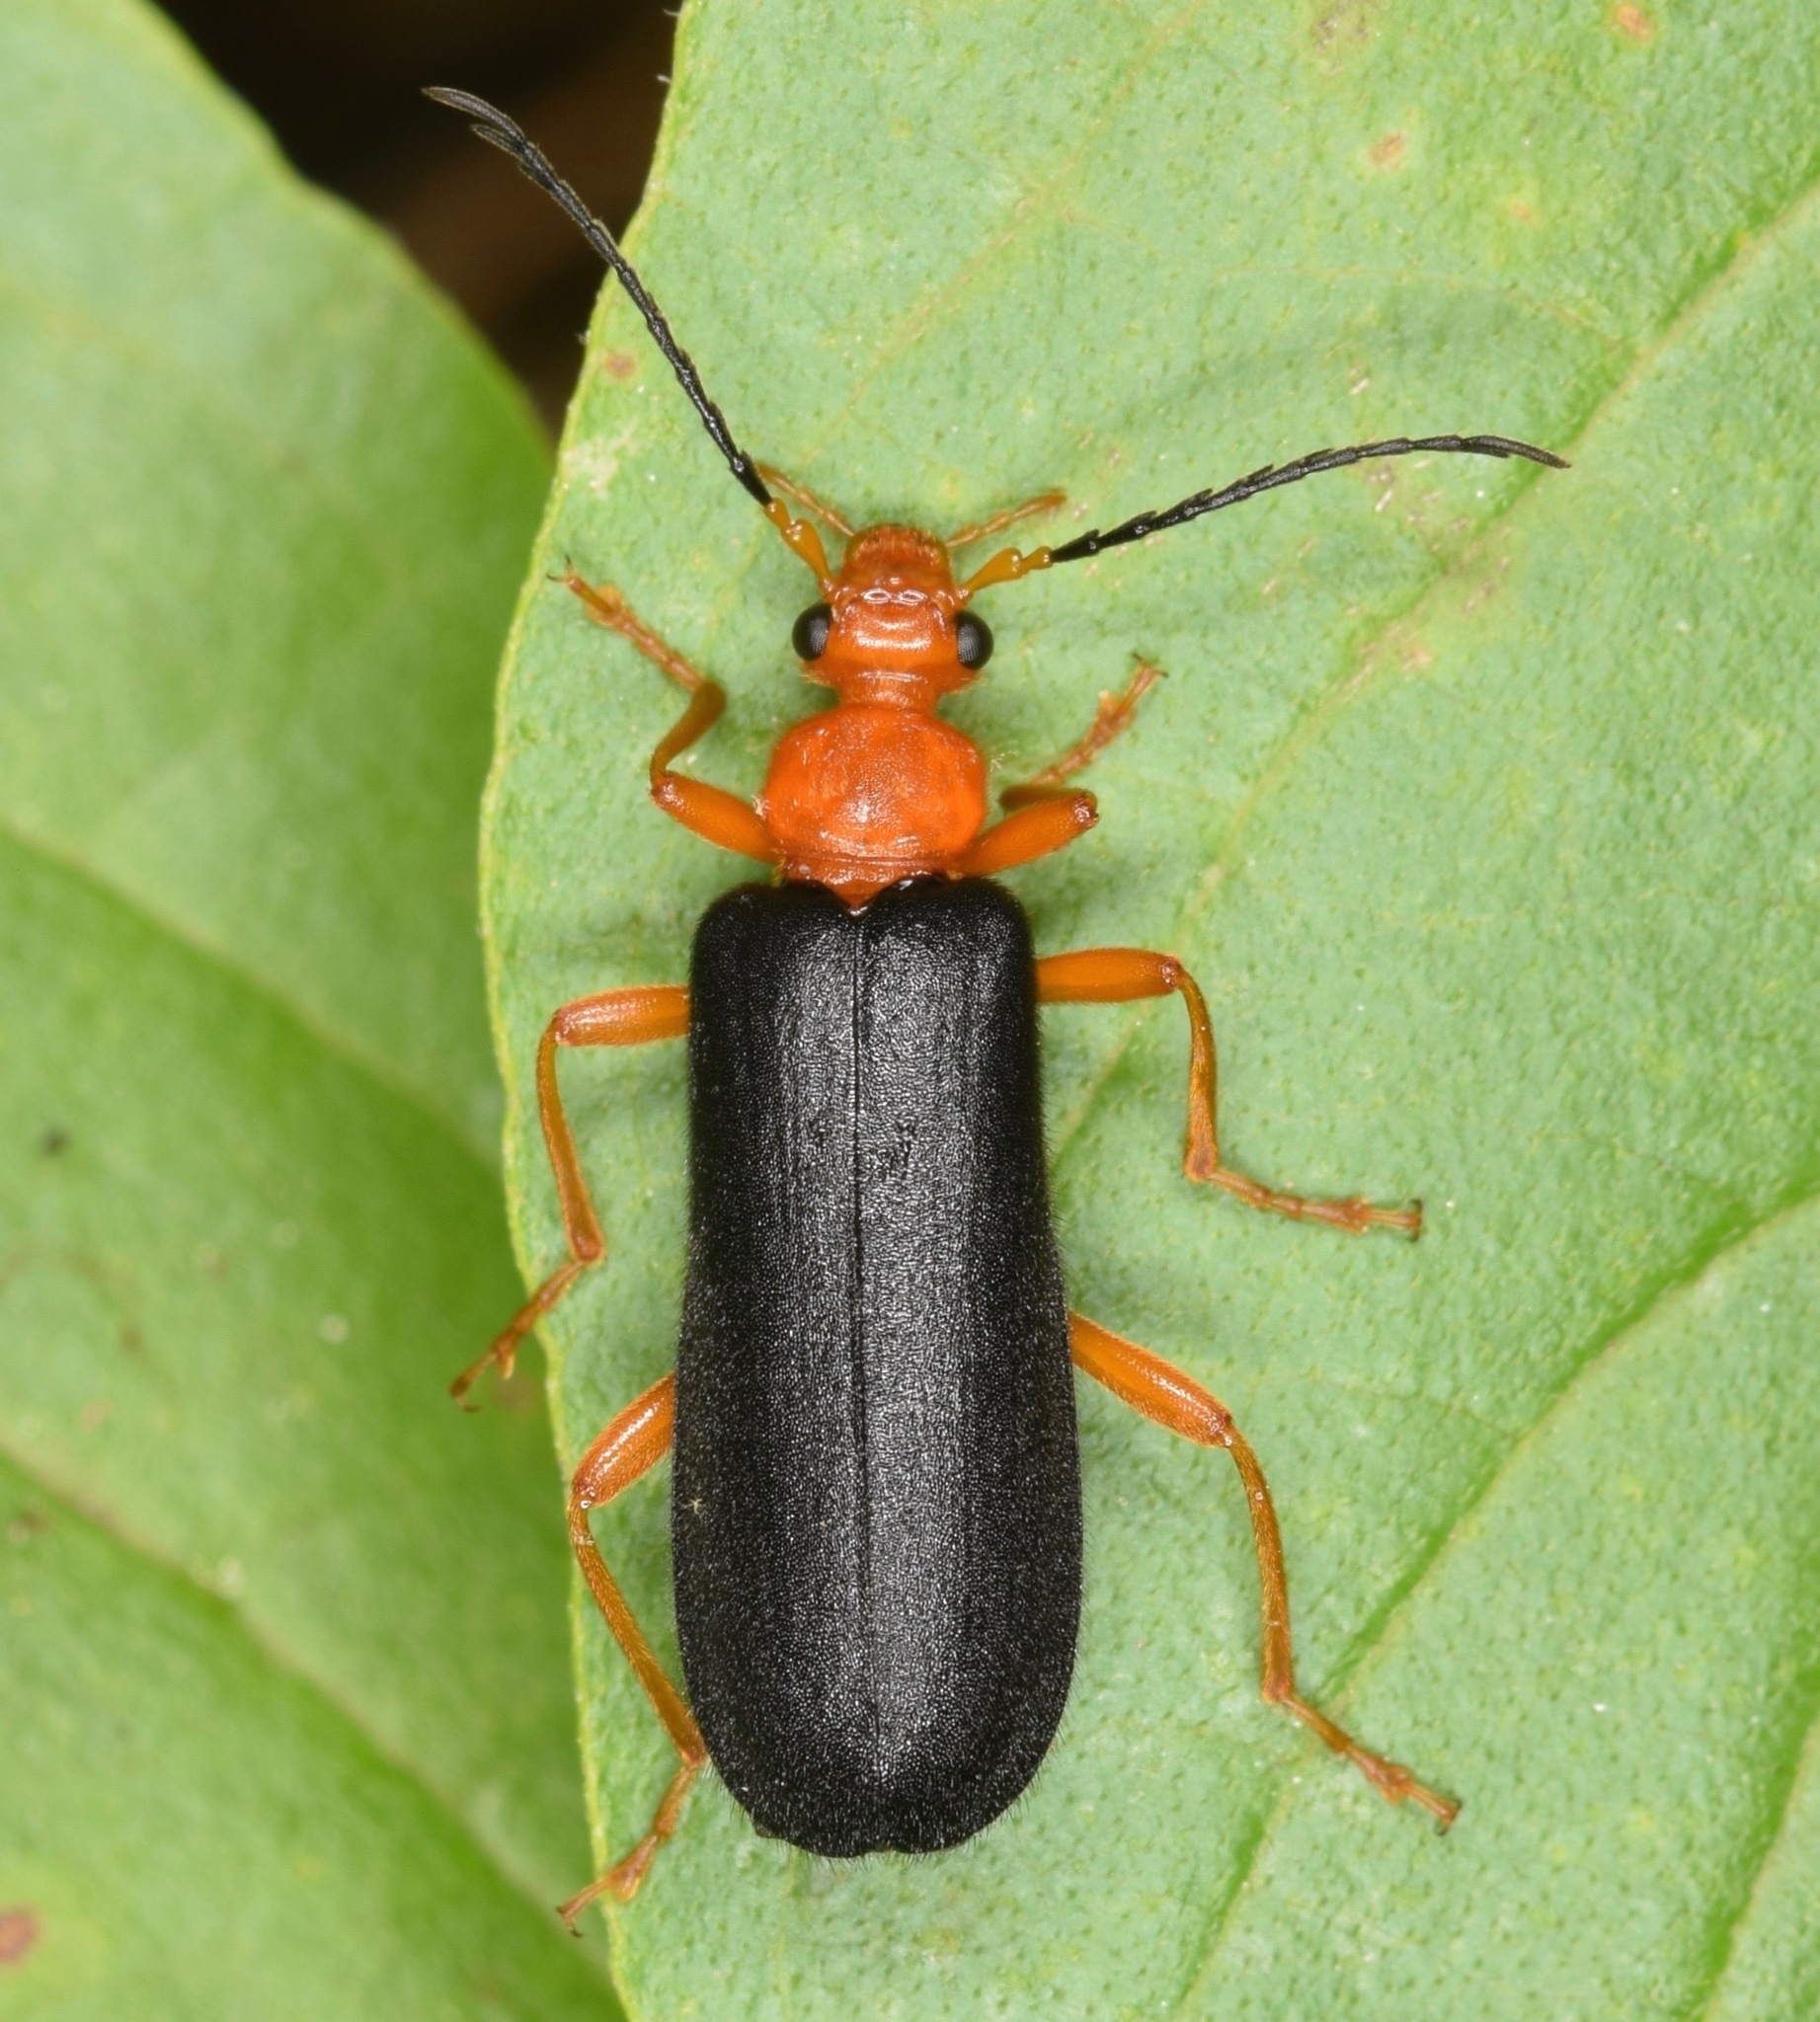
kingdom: Animalia
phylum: Arthropoda
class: Insecta
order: Coleoptera
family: Pyrochroidae
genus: Neopyrochroa
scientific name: Neopyrochroa flabellata
